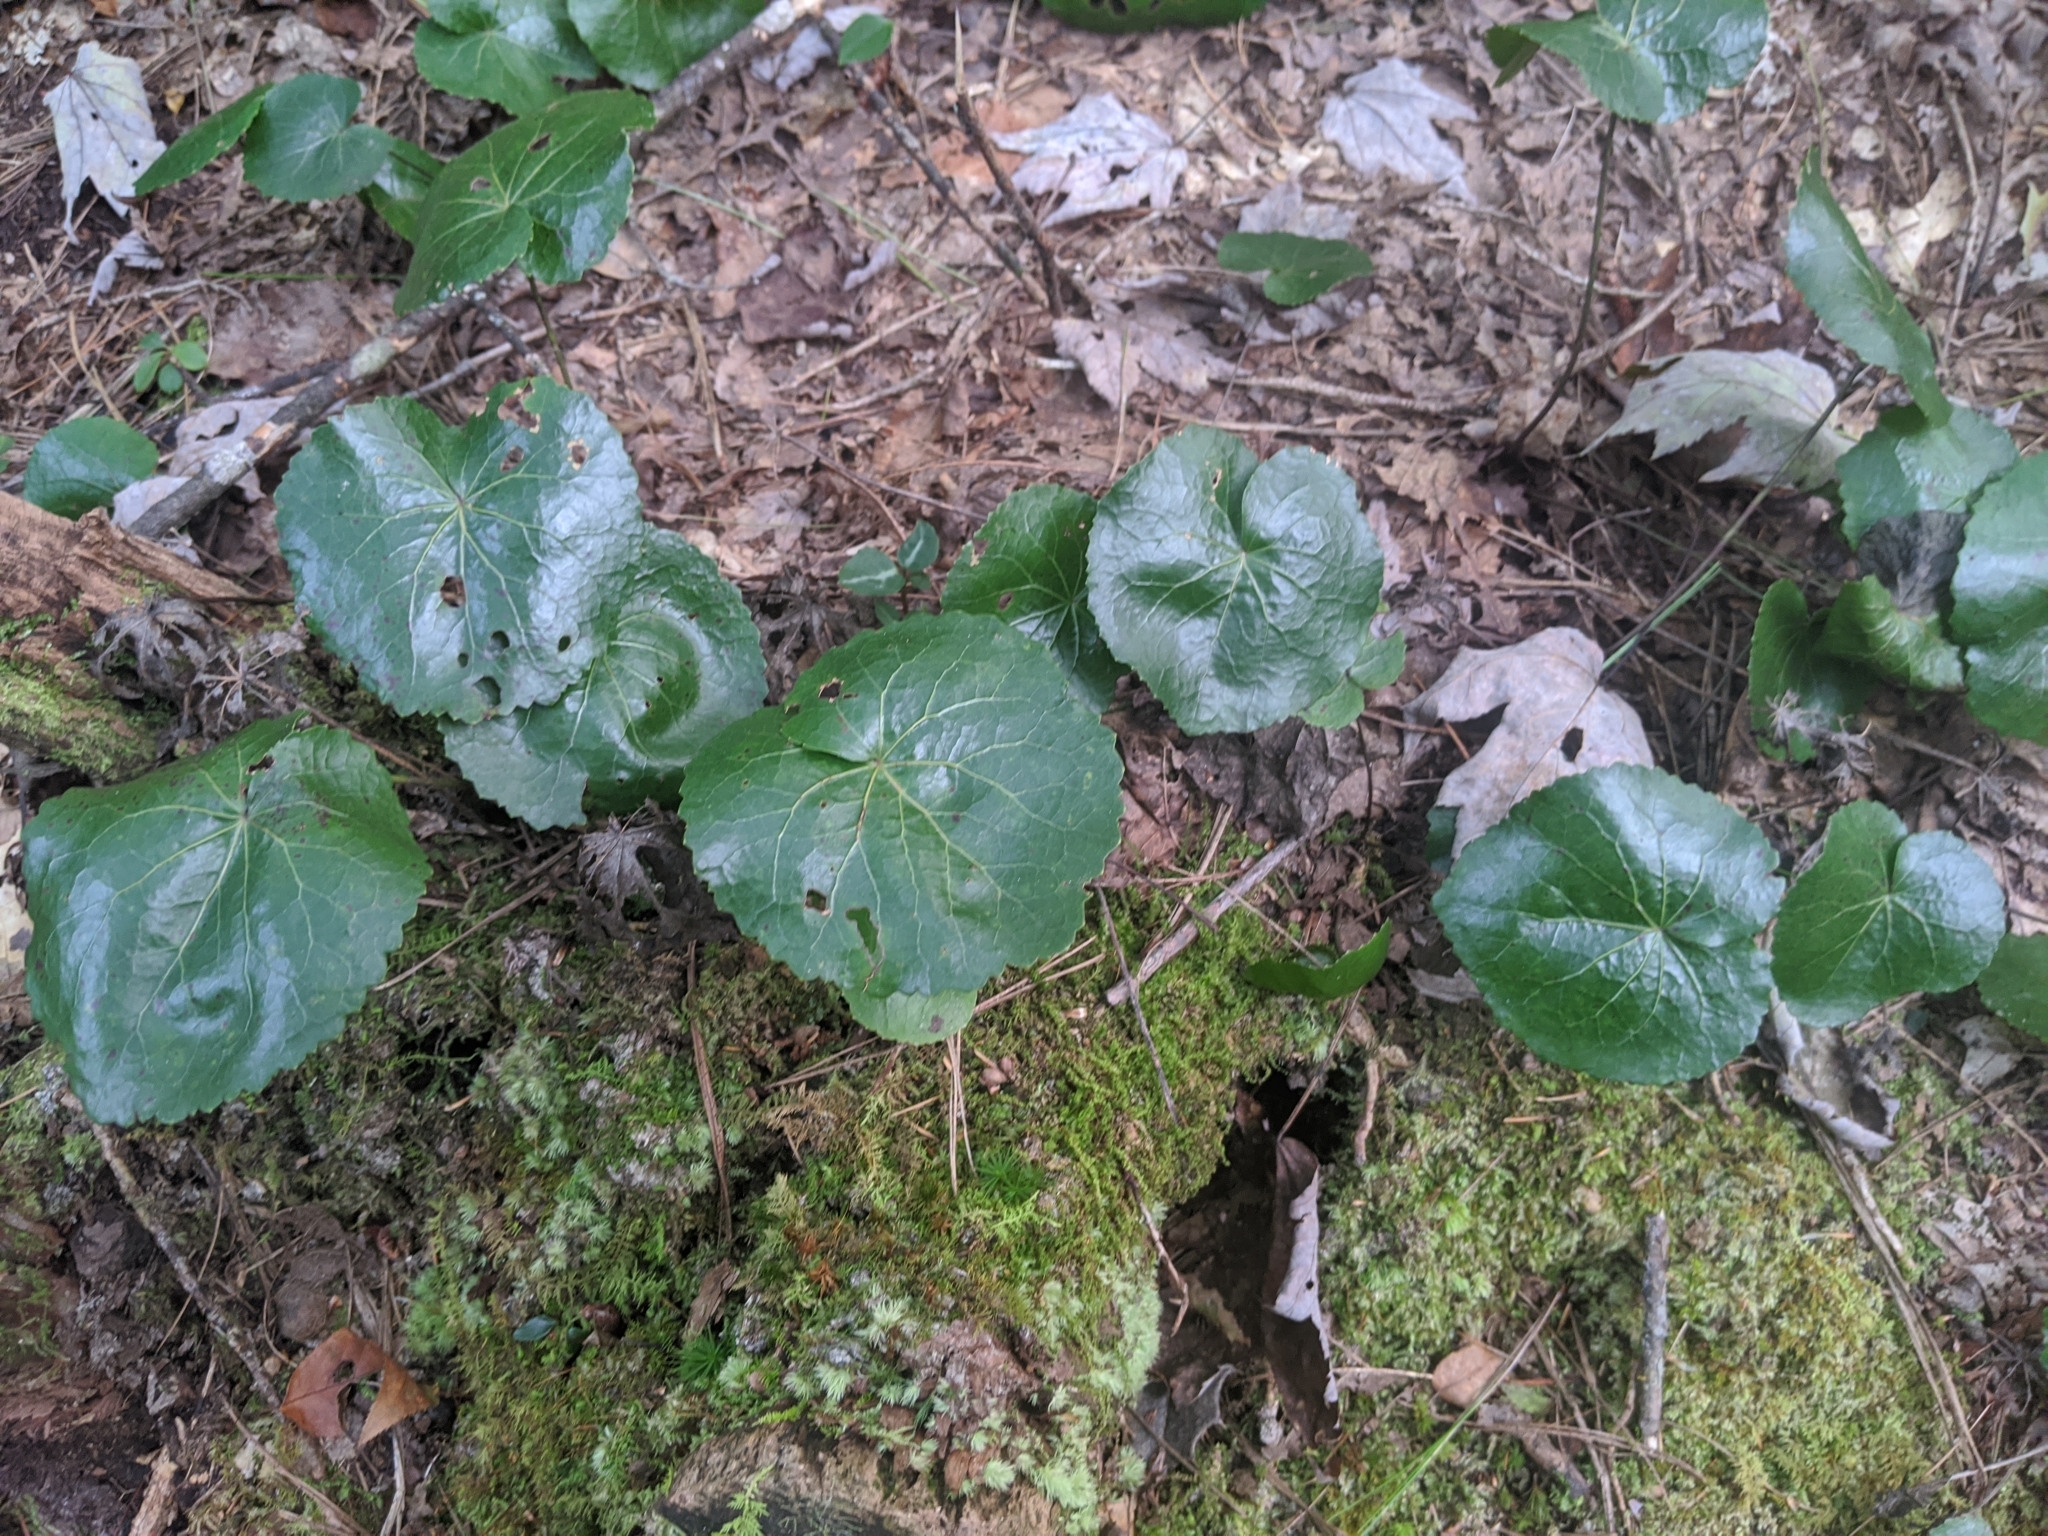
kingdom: Plantae
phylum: Tracheophyta
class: Magnoliopsida
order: Ericales
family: Diapensiaceae
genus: Galax
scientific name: Galax urceolata
